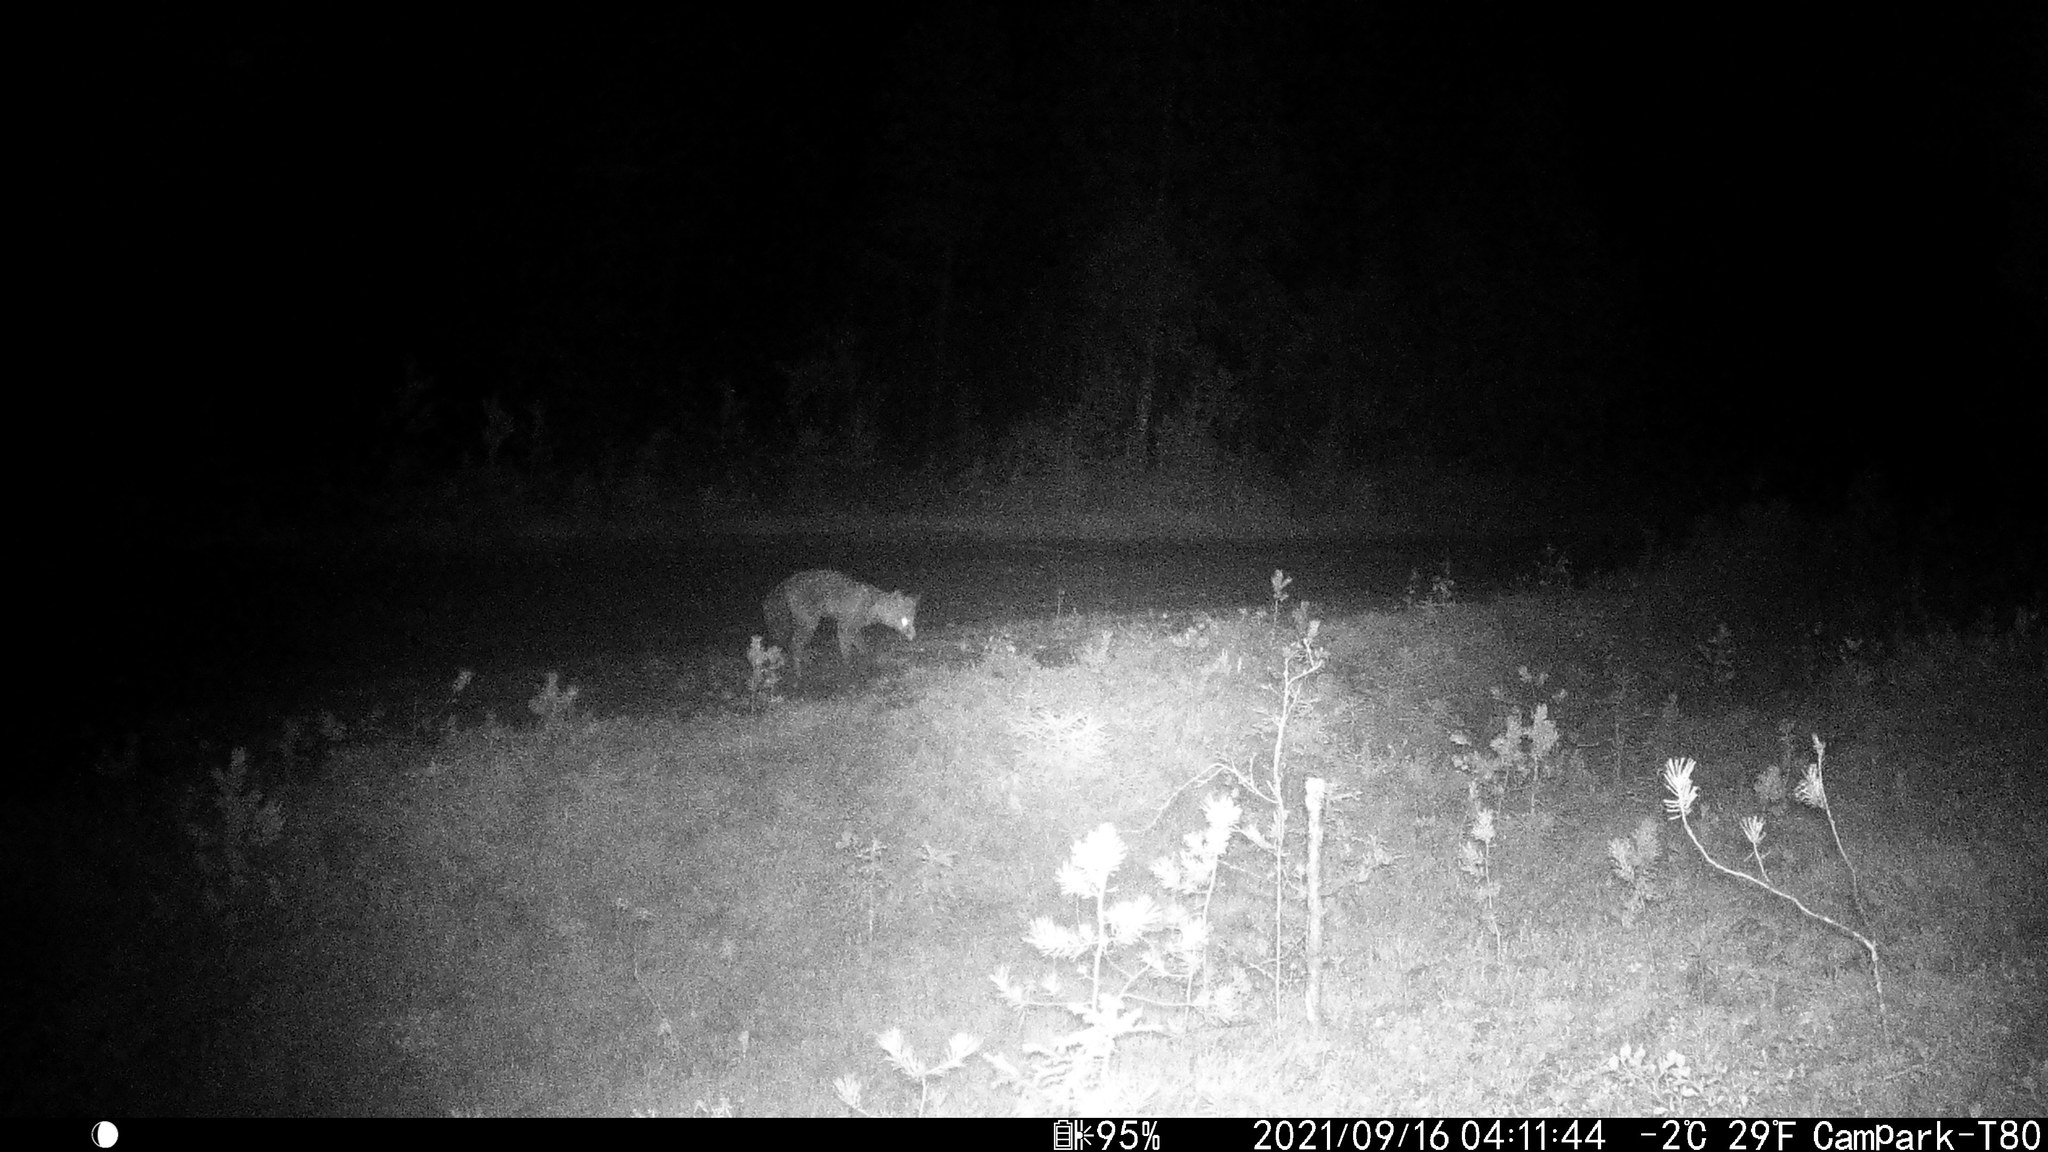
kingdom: Animalia
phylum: Chordata
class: Mammalia
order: Carnivora
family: Canidae
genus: Vulpes
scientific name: Vulpes vulpes
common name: Red fox
